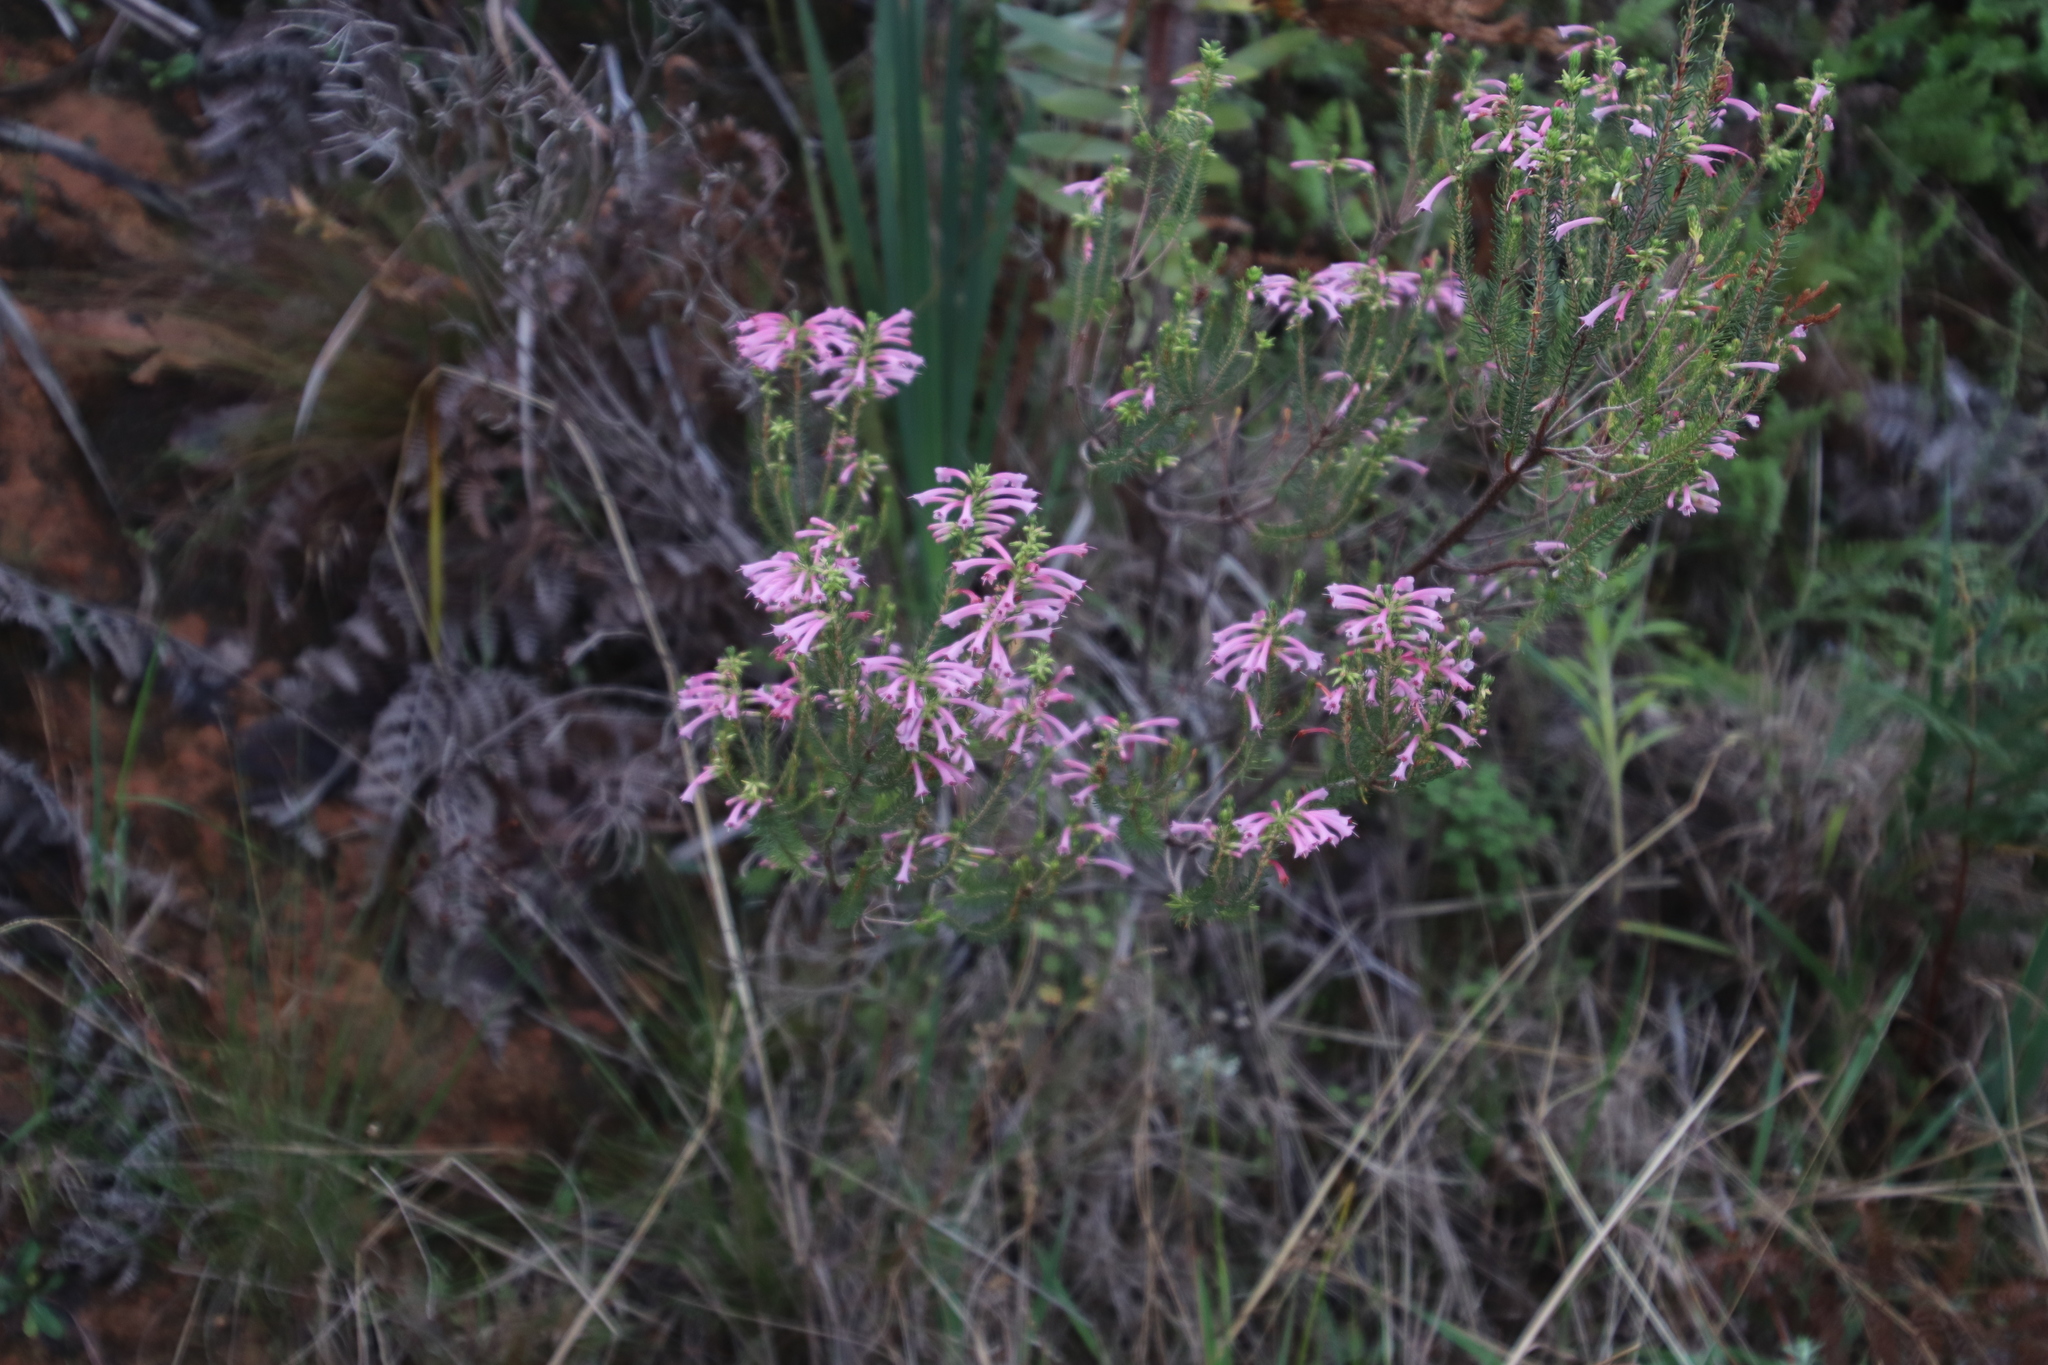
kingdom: Plantae
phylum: Tracheophyta
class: Magnoliopsida
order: Ericales
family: Ericaceae
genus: Erica
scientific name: Erica abietina
